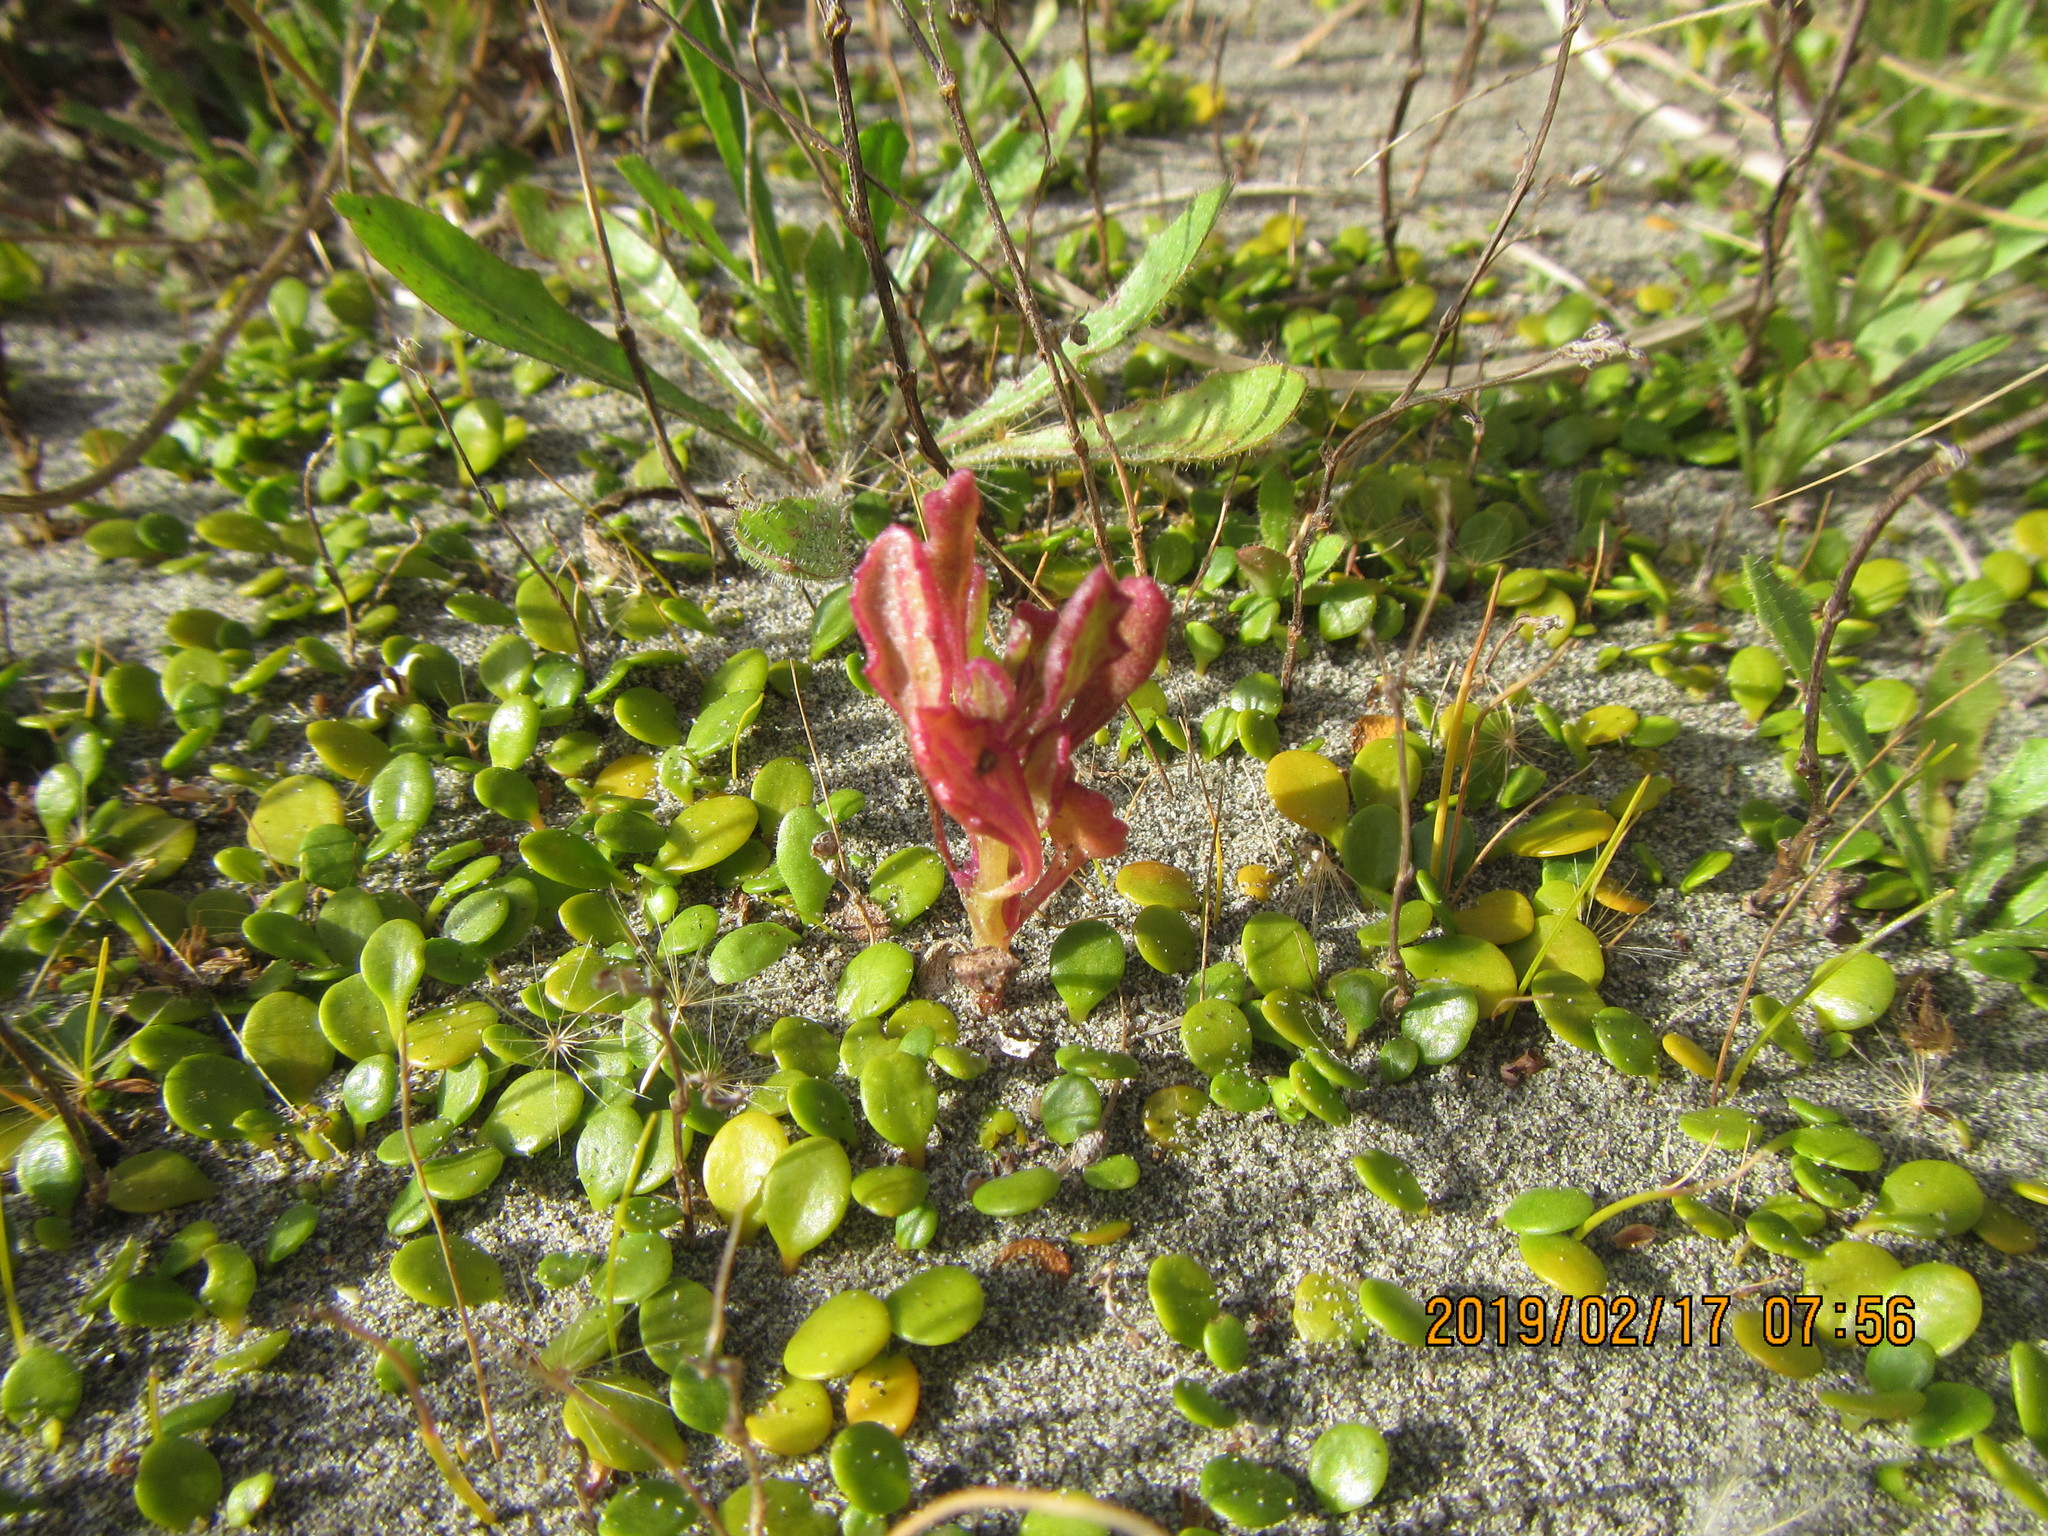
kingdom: Plantae
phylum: Tracheophyta
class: Magnoliopsida
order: Asterales
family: Asteraceae
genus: Senecio
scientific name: Senecio elegans
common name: Purple groundsel
